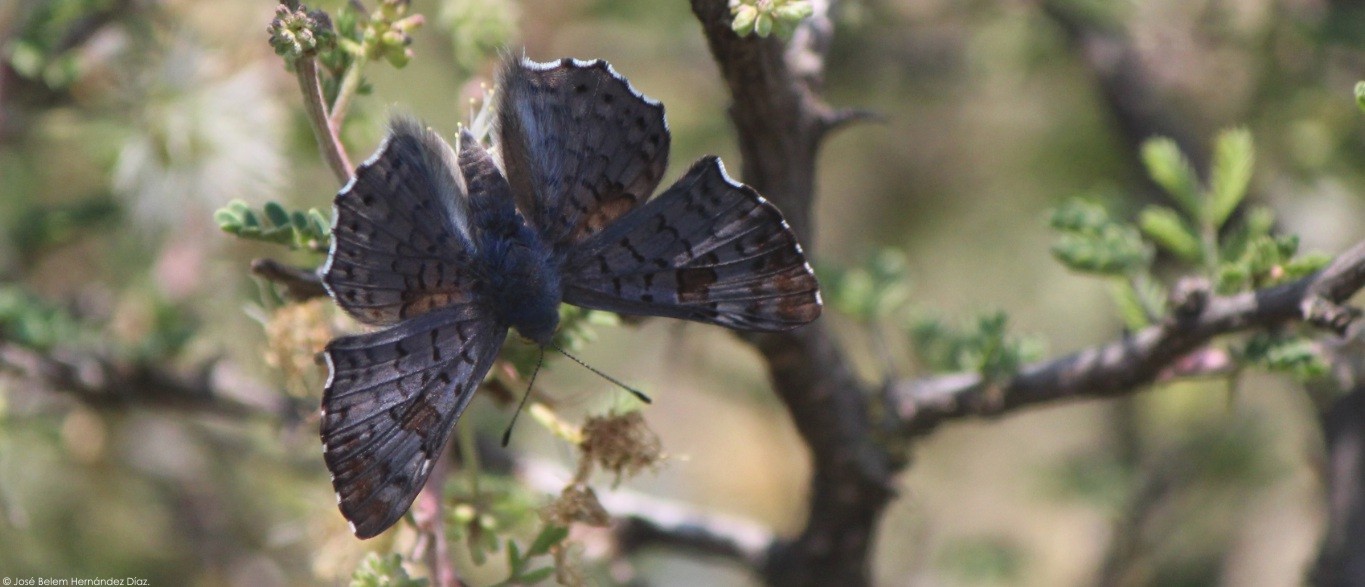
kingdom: Animalia
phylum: Arthropoda
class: Insecta
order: Lepidoptera
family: Riodinidae
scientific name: Riodinidae
